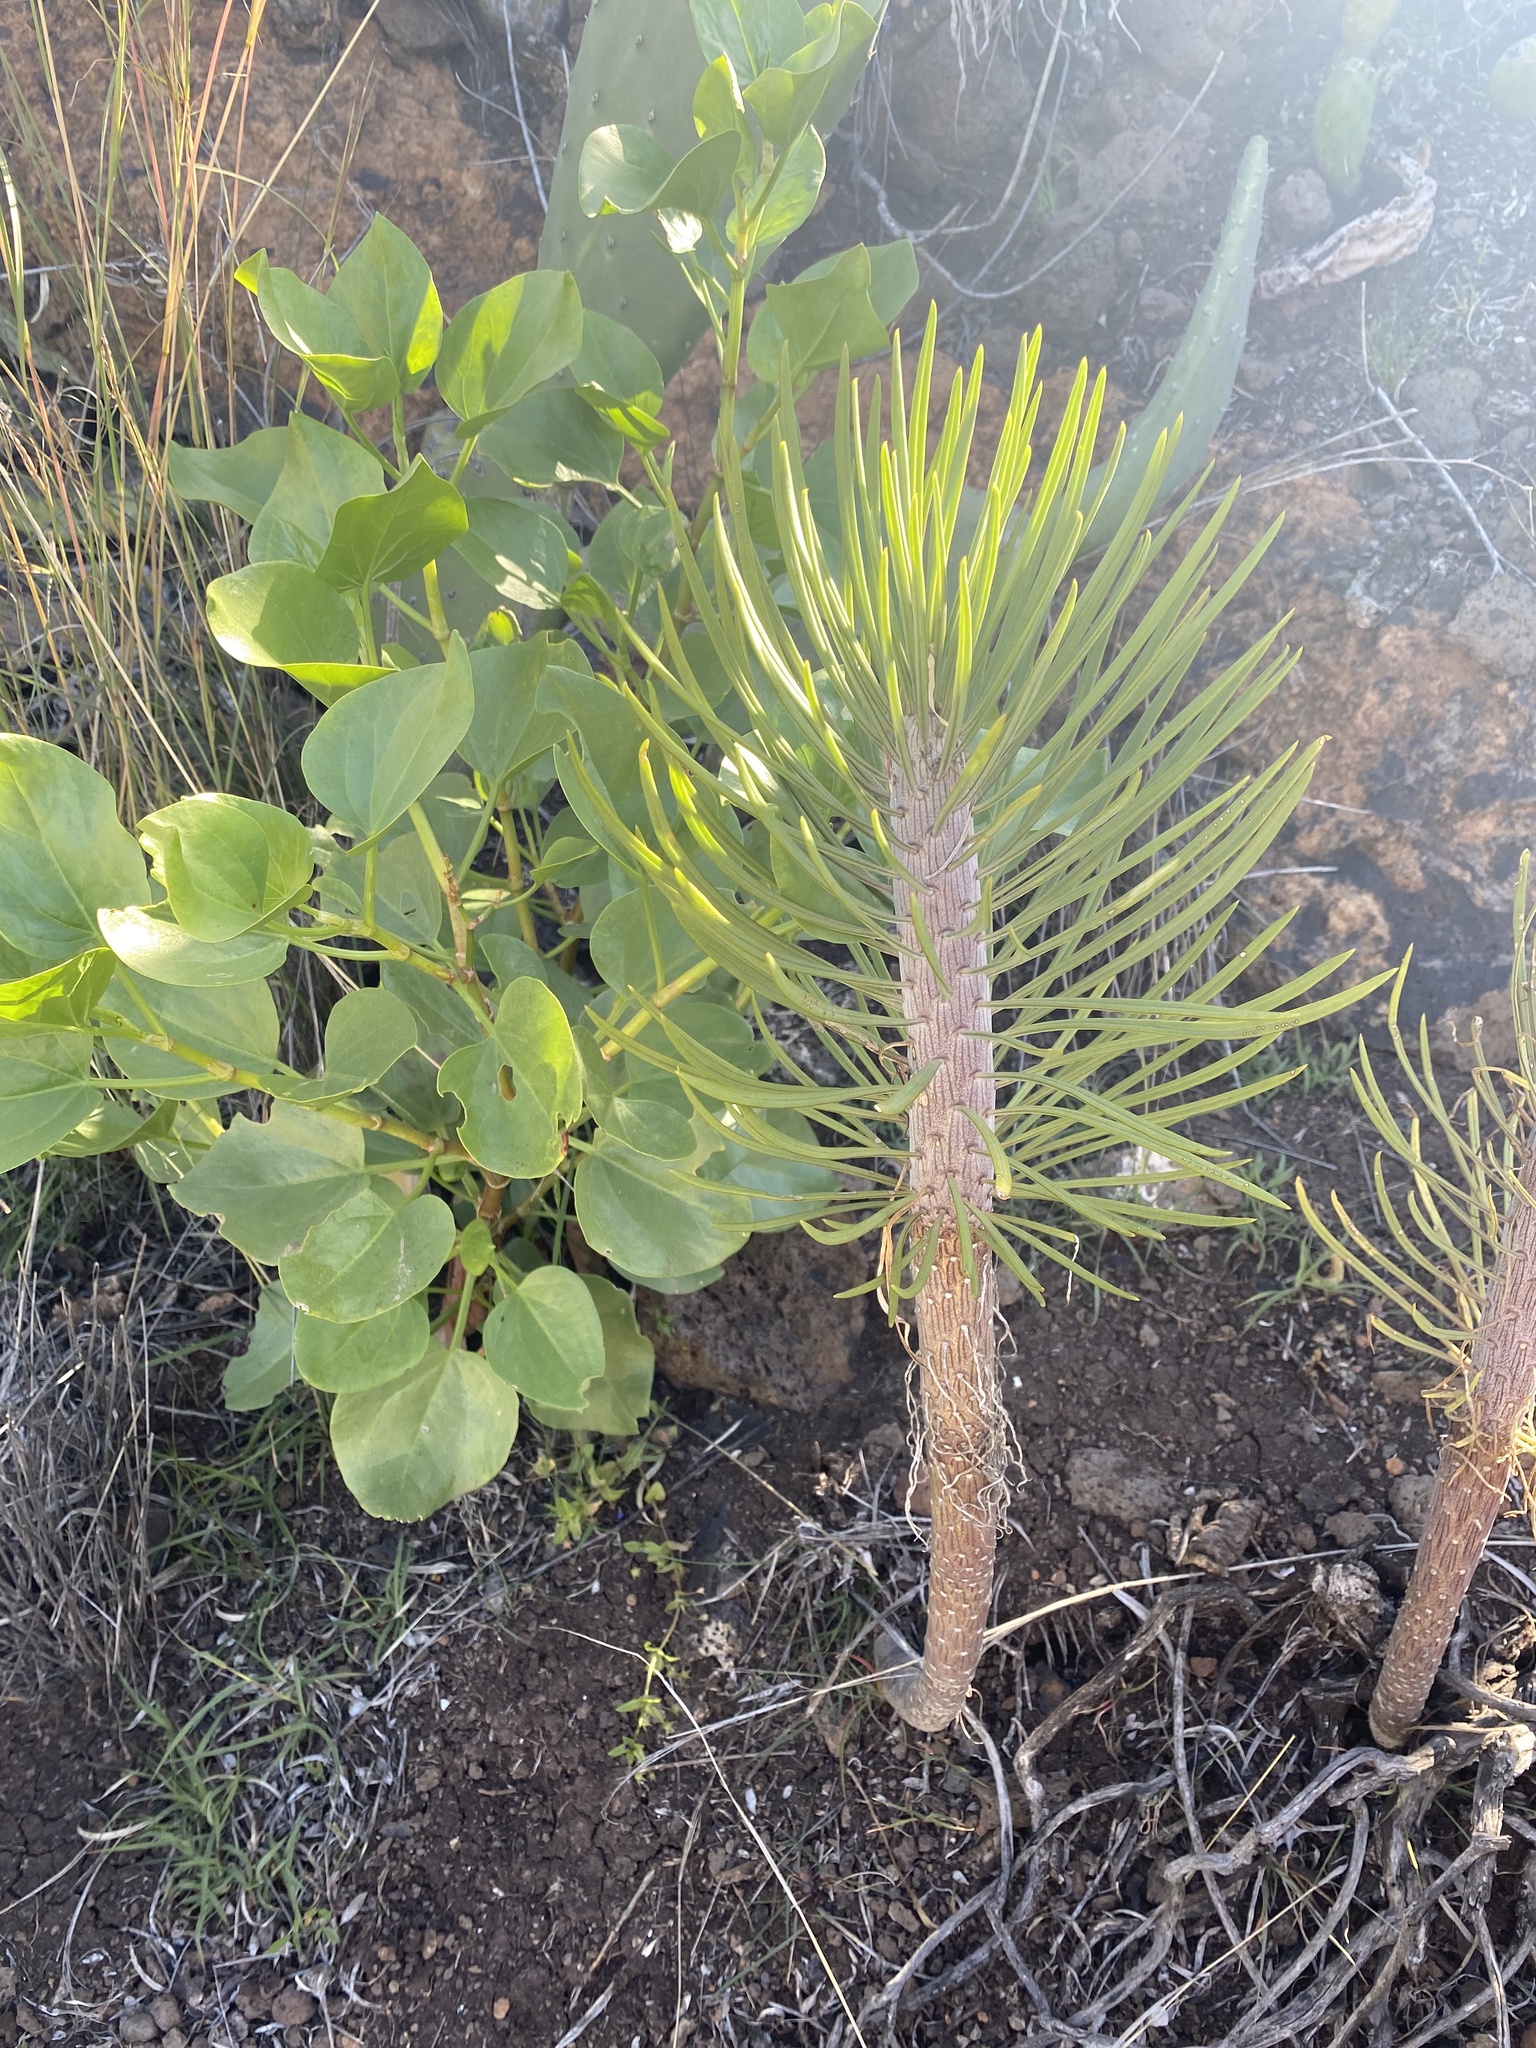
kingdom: Plantae
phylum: Tracheophyta
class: Magnoliopsida
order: Asterales
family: Asteraceae
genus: Kleinia
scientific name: Kleinia neriifolia
